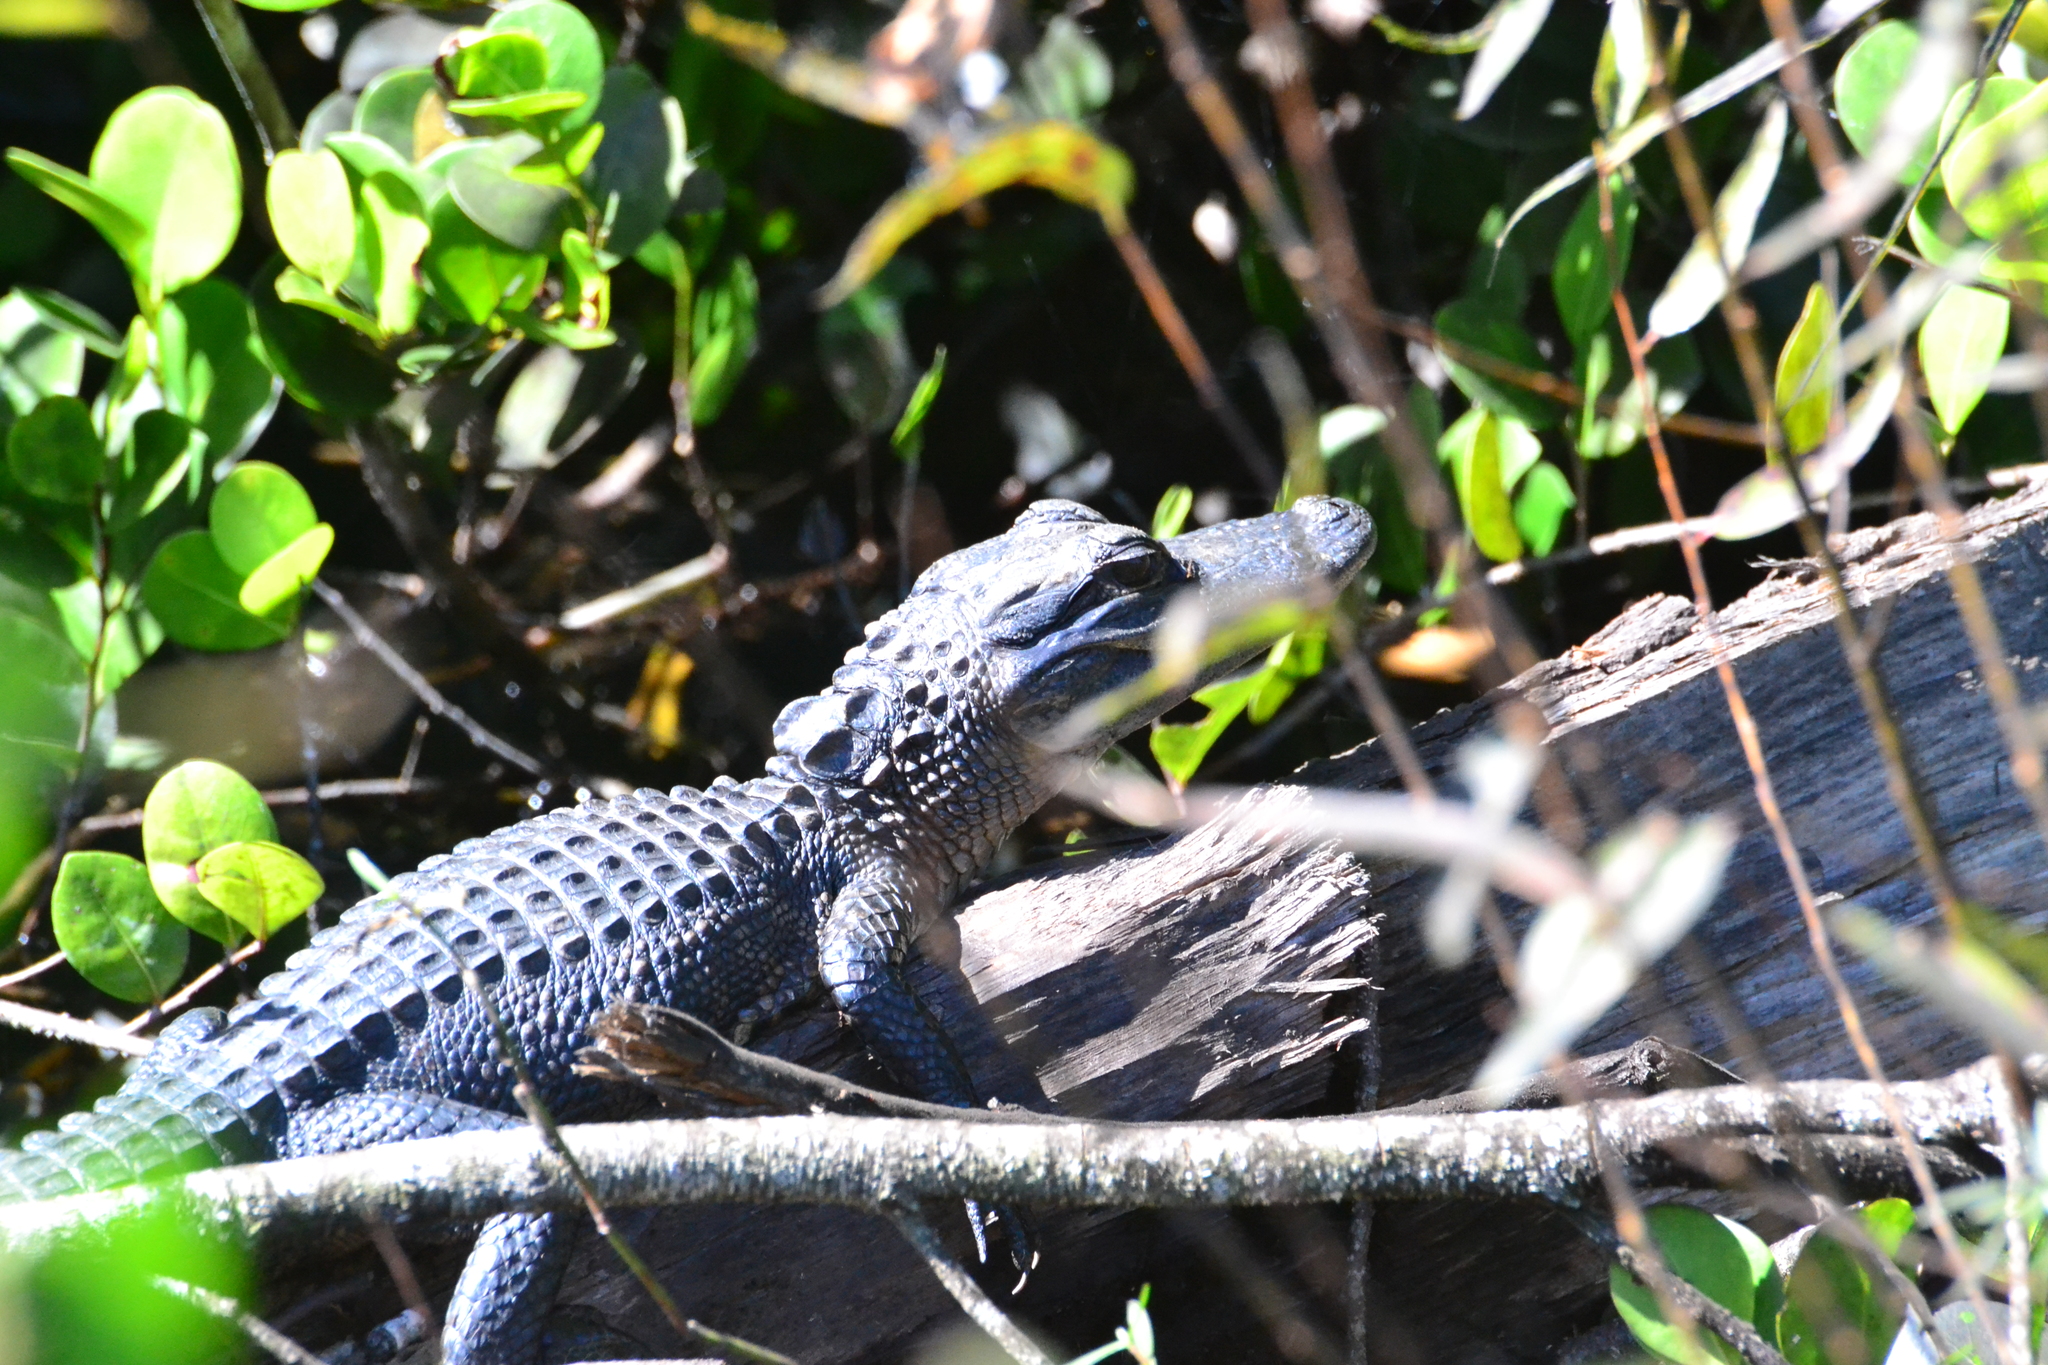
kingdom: Animalia
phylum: Chordata
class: Crocodylia
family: Alligatoridae
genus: Alligator
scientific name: Alligator mississippiensis
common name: American alligator
